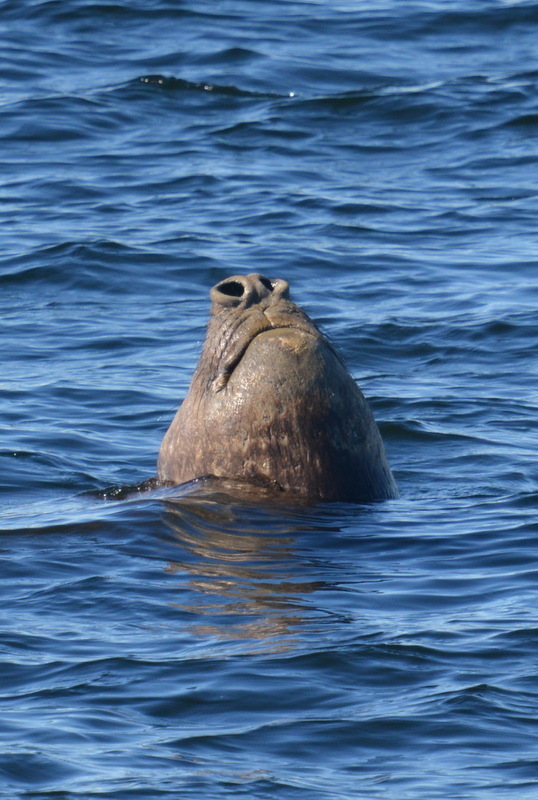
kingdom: Animalia
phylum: Chordata
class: Mammalia
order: Carnivora
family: Phocidae
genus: Mirounga
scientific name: Mirounga leonina
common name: Southern elephant seal
